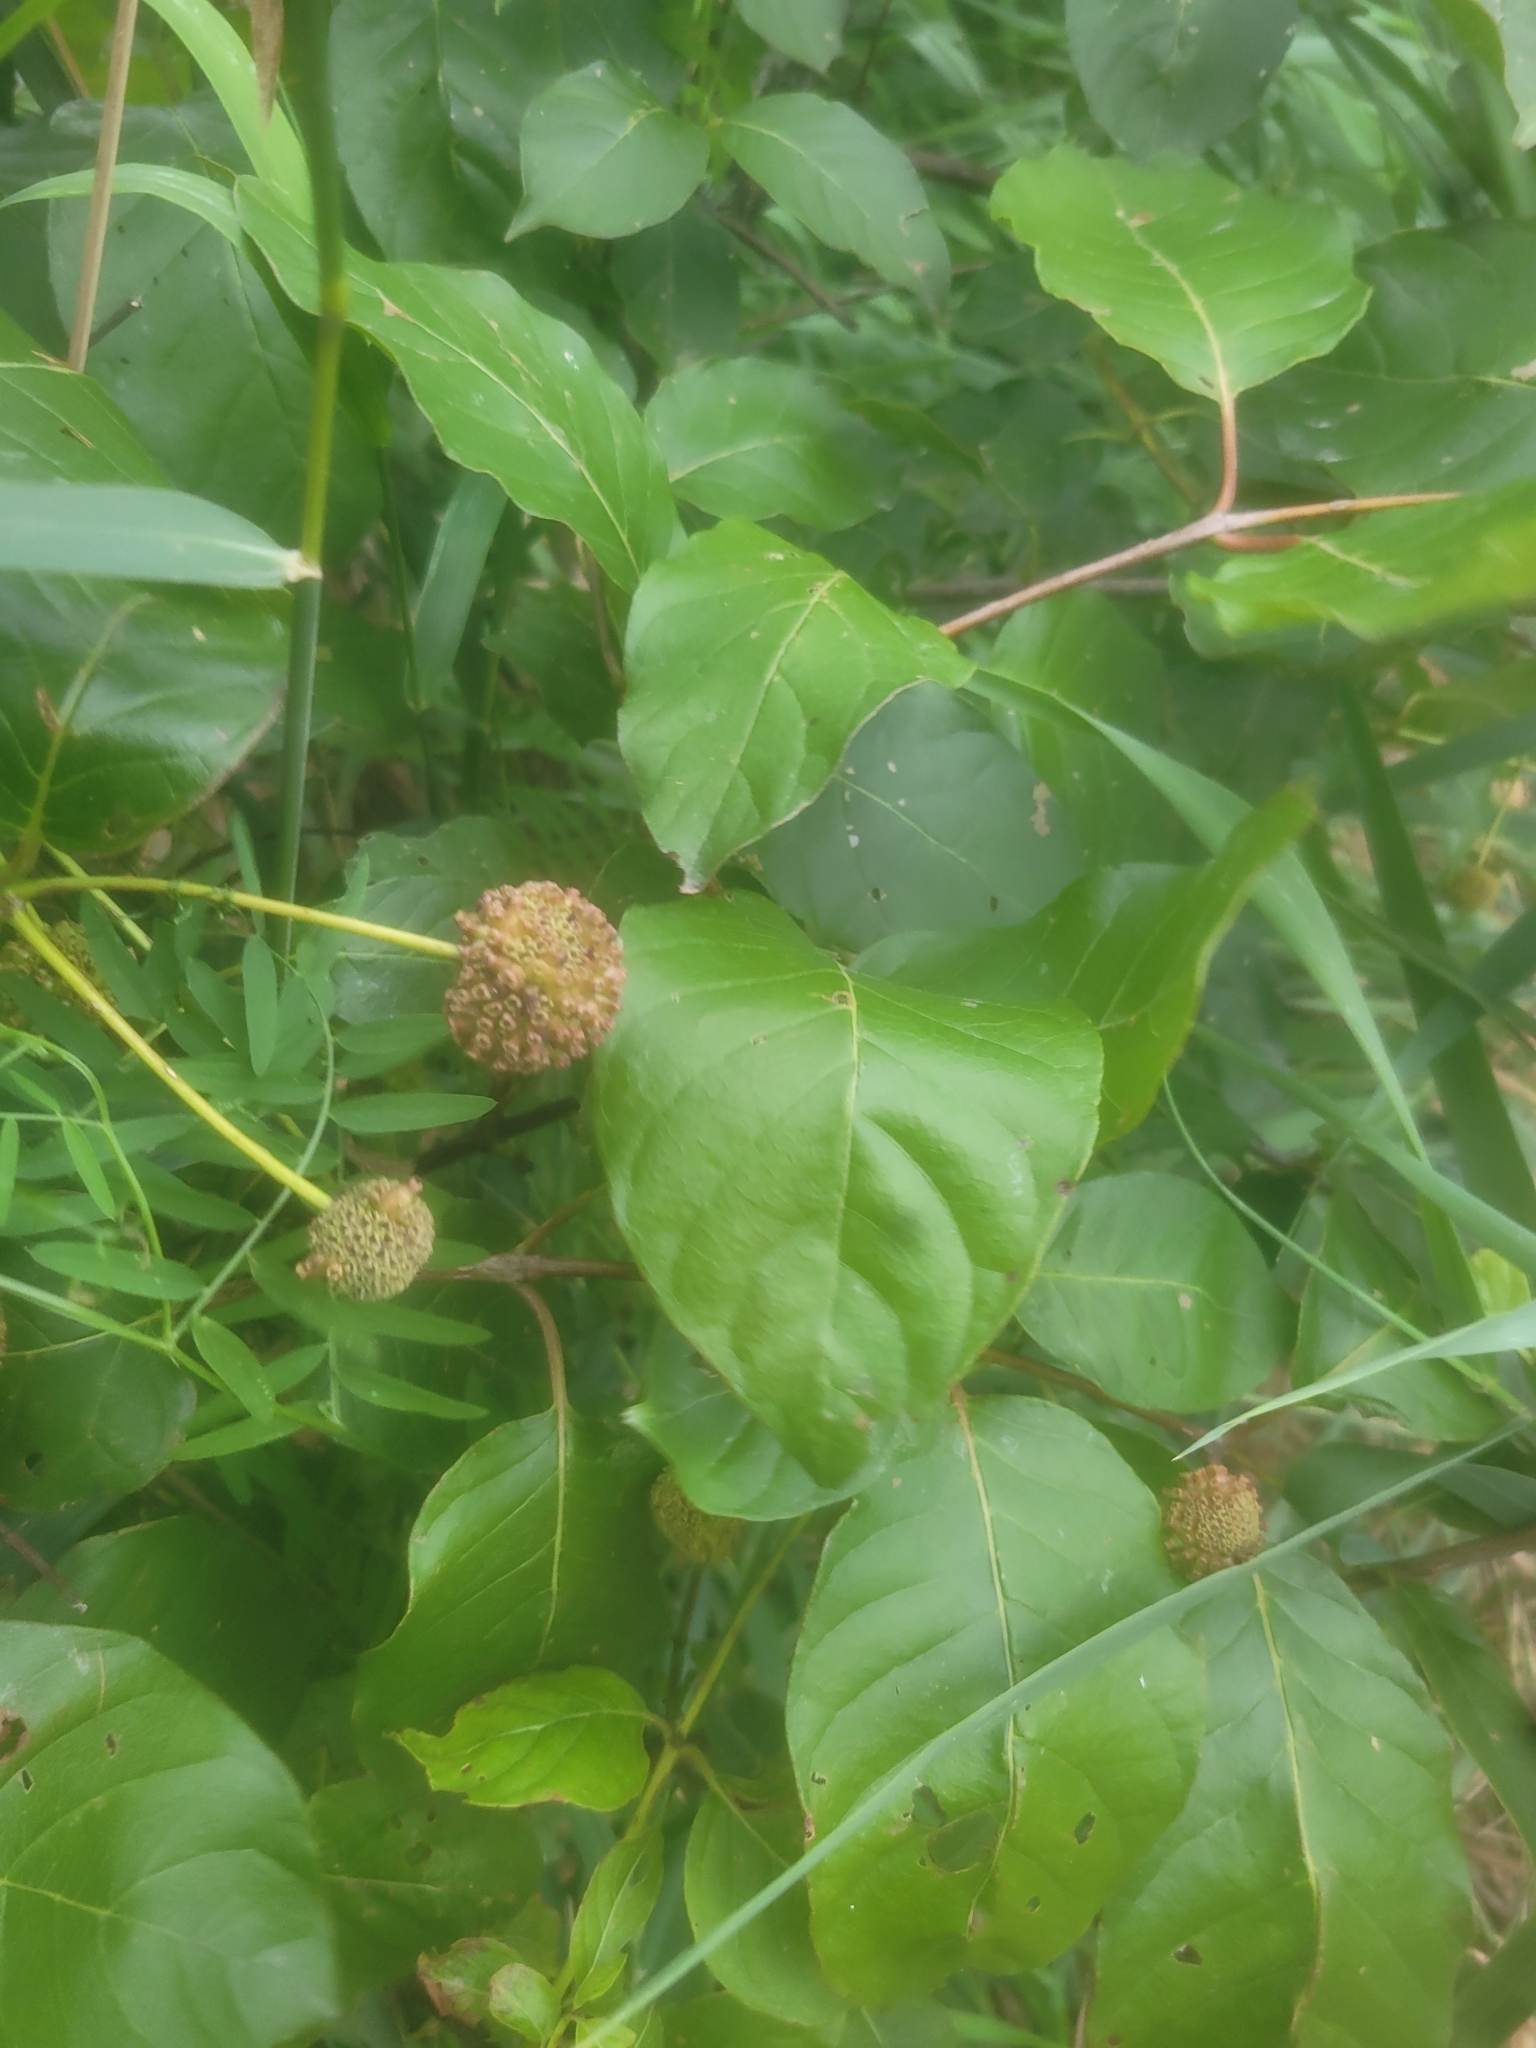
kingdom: Plantae
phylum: Tracheophyta
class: Magnoliopsida
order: Gentianales
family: Rubiaceae
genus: Cephalanthus
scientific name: Cephalanthus occidentalis
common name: Button-willow
